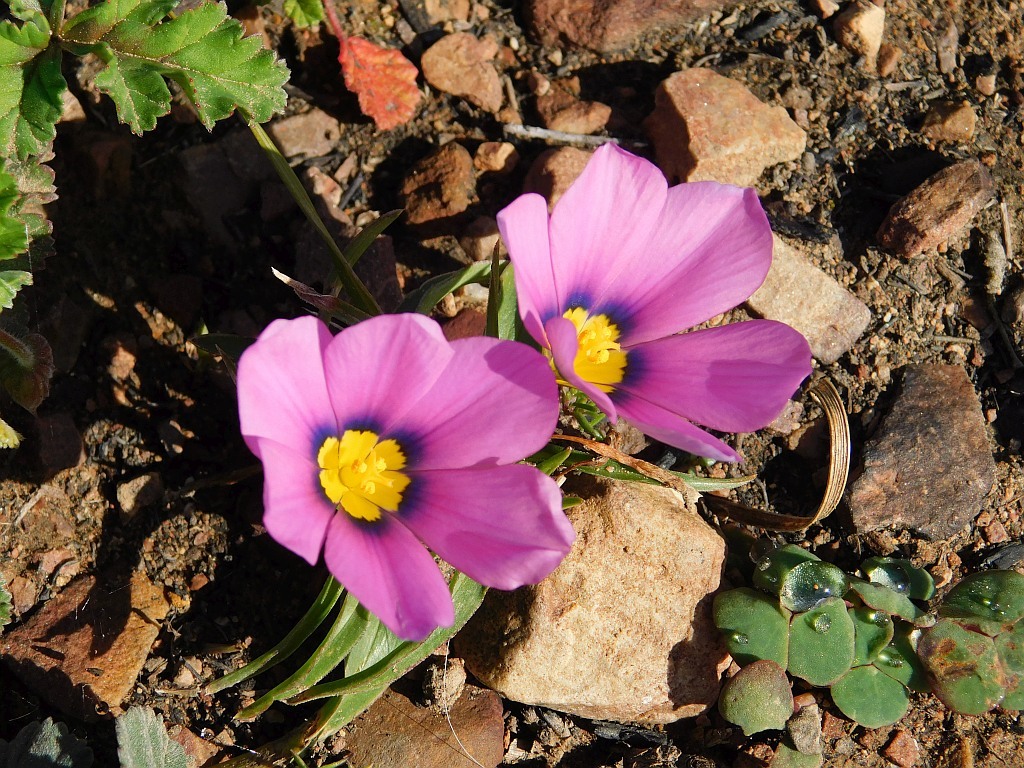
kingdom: Plantae
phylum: Tracheophyta
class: Liliopsida
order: Asparagales
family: Iridaceae
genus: Moraea
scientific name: Moraea barnardiella
